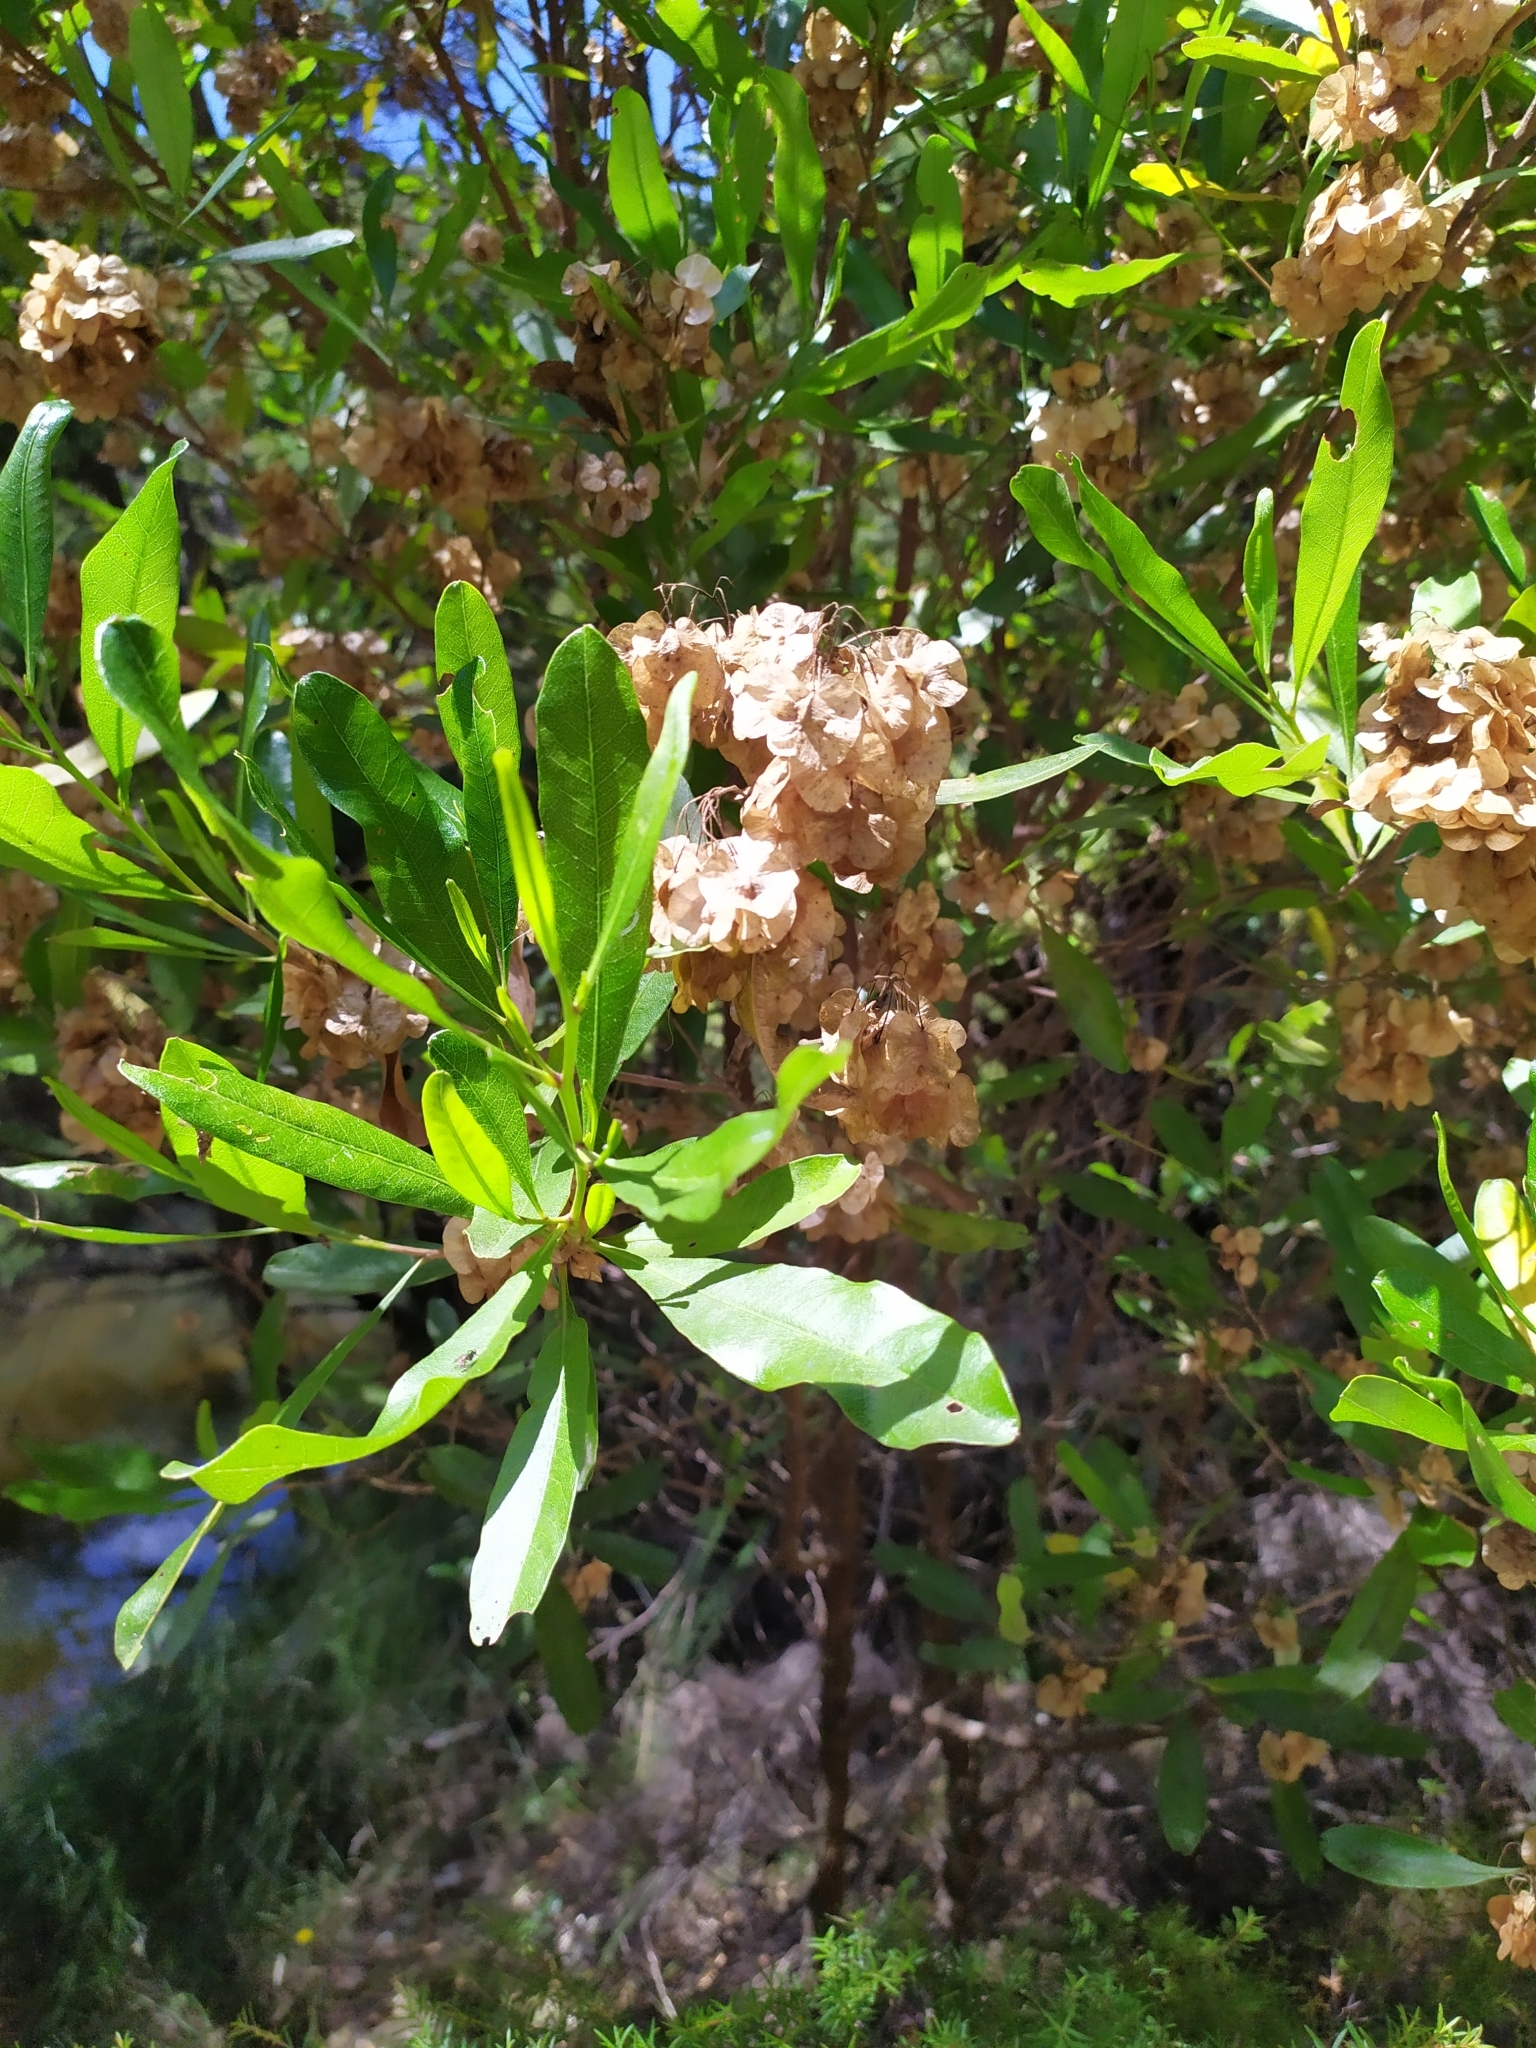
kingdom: Plantae
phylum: Tracheophyta
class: Magnoliopsida
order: Sapindales
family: Sapindaceae
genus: Dodonaea
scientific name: Dodonaea viscosa
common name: Hopbush
